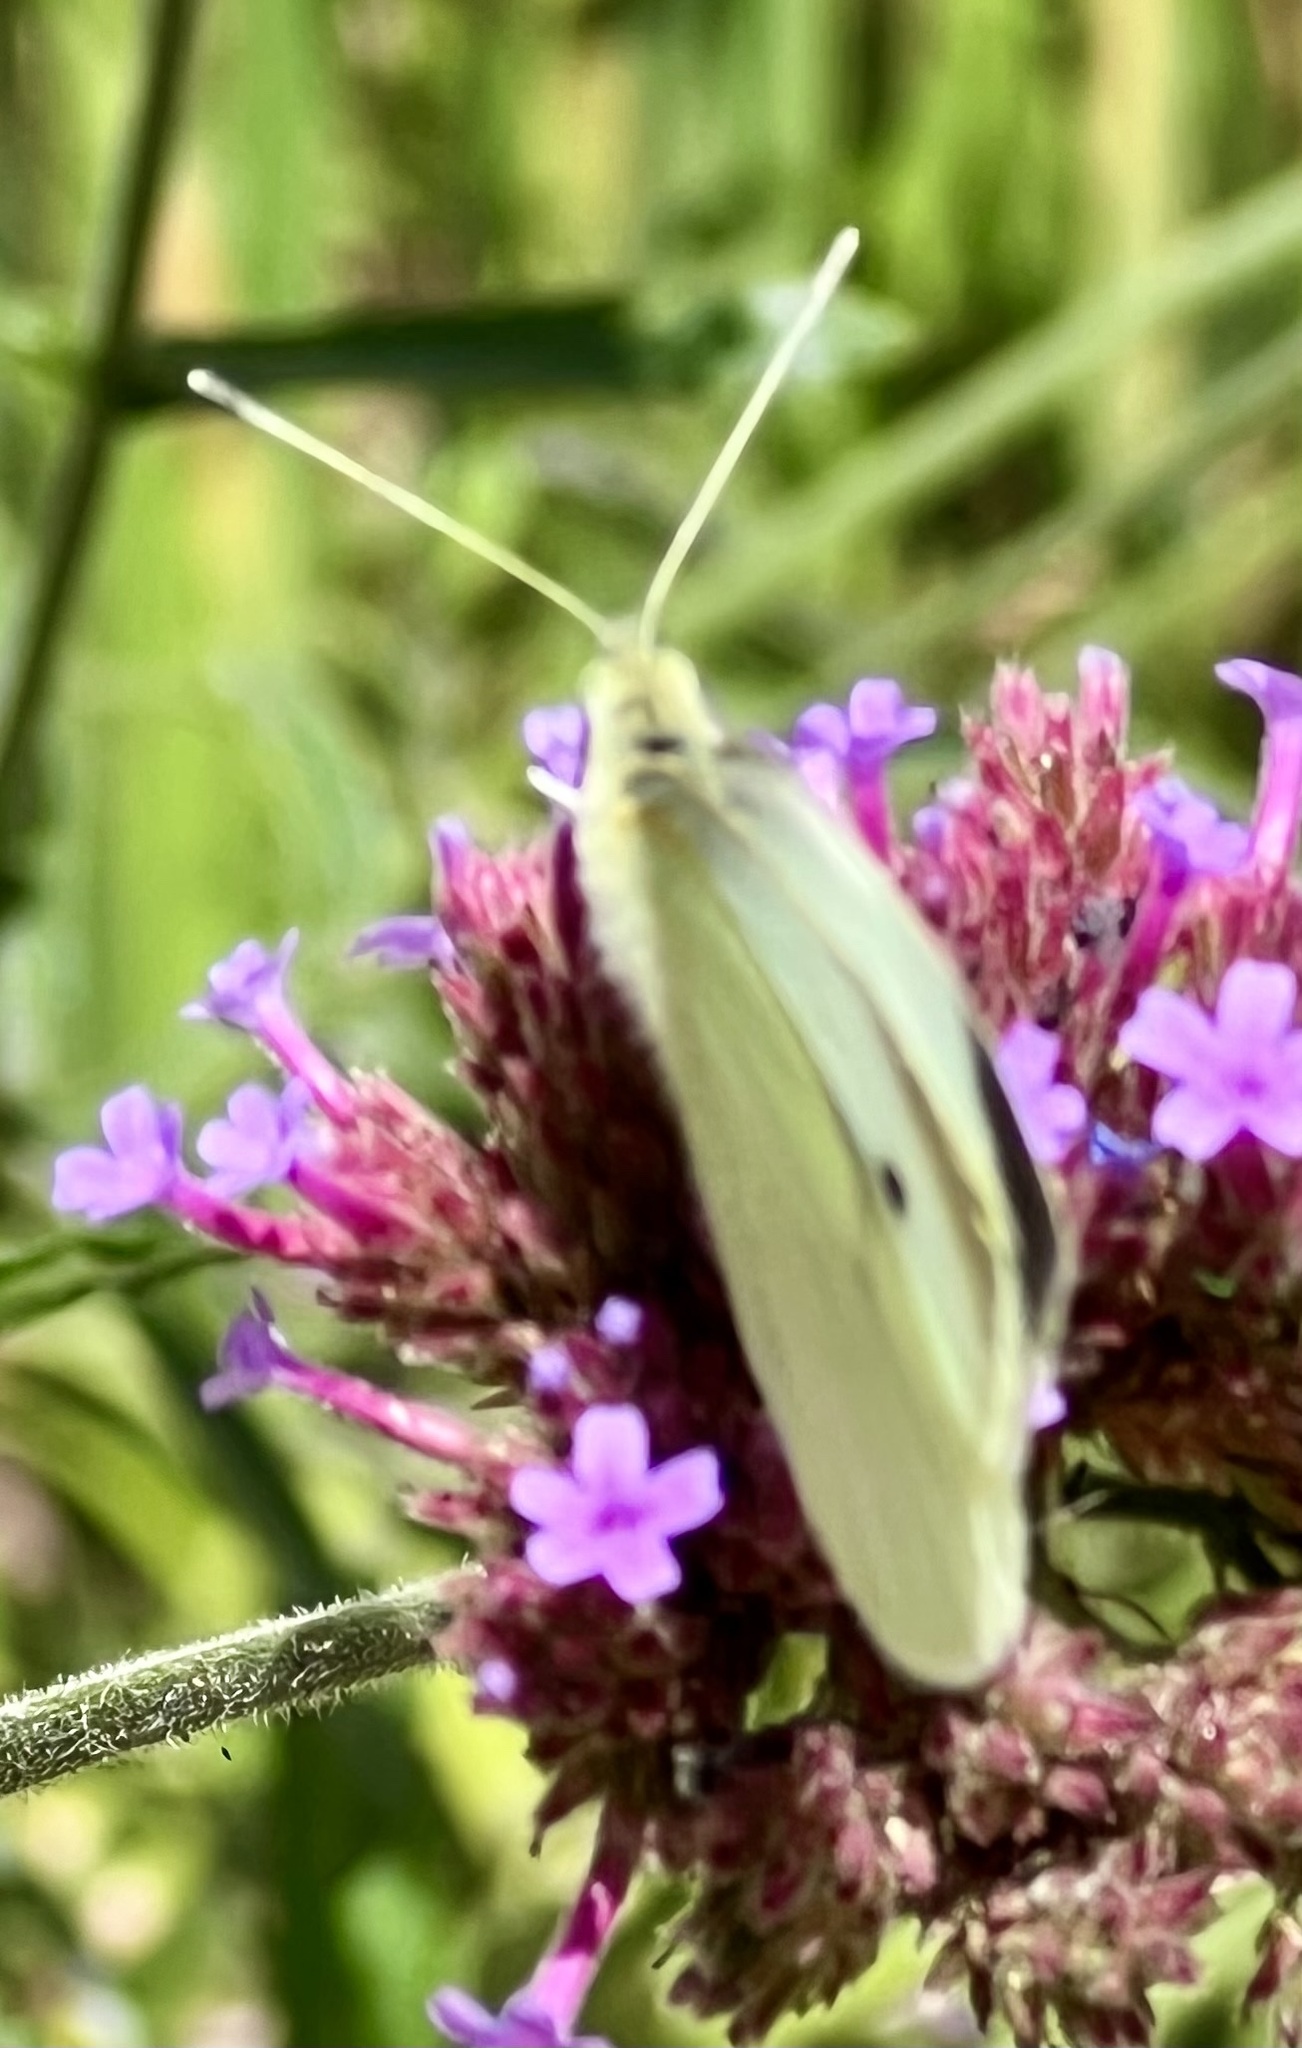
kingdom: Animalia
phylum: Arthropoda
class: Insecta
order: Lepidoptera
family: Pieridae
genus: Pieris
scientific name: Pieris rapae
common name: Small white
